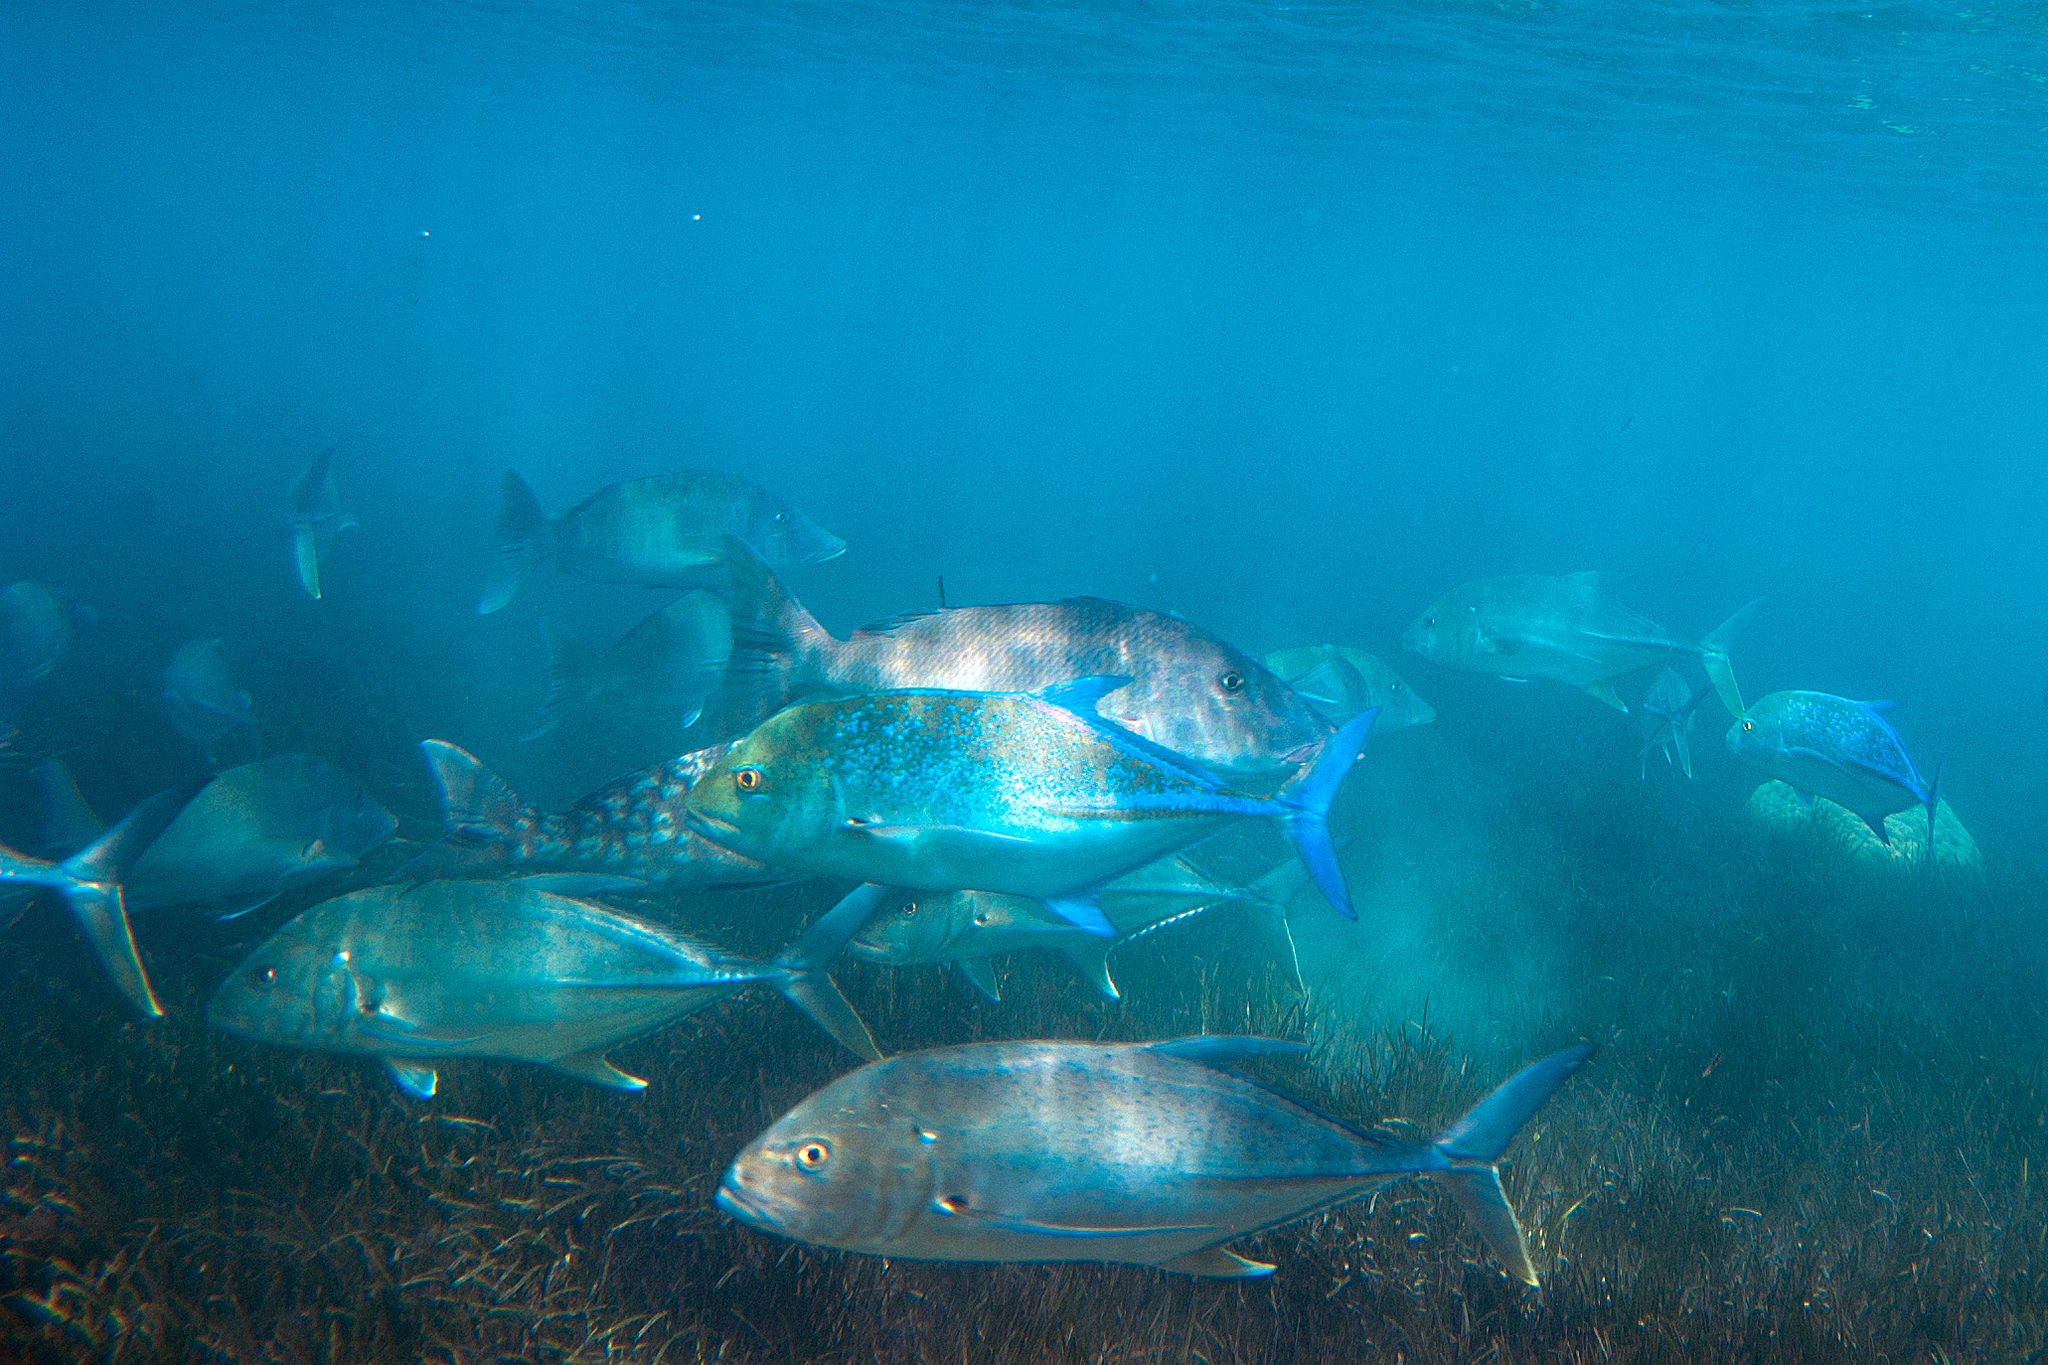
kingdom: Animalia
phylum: Chordata
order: Perciformes
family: Carangidae
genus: Caranx
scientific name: Caranx melampygus
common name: Bluefin trevally
